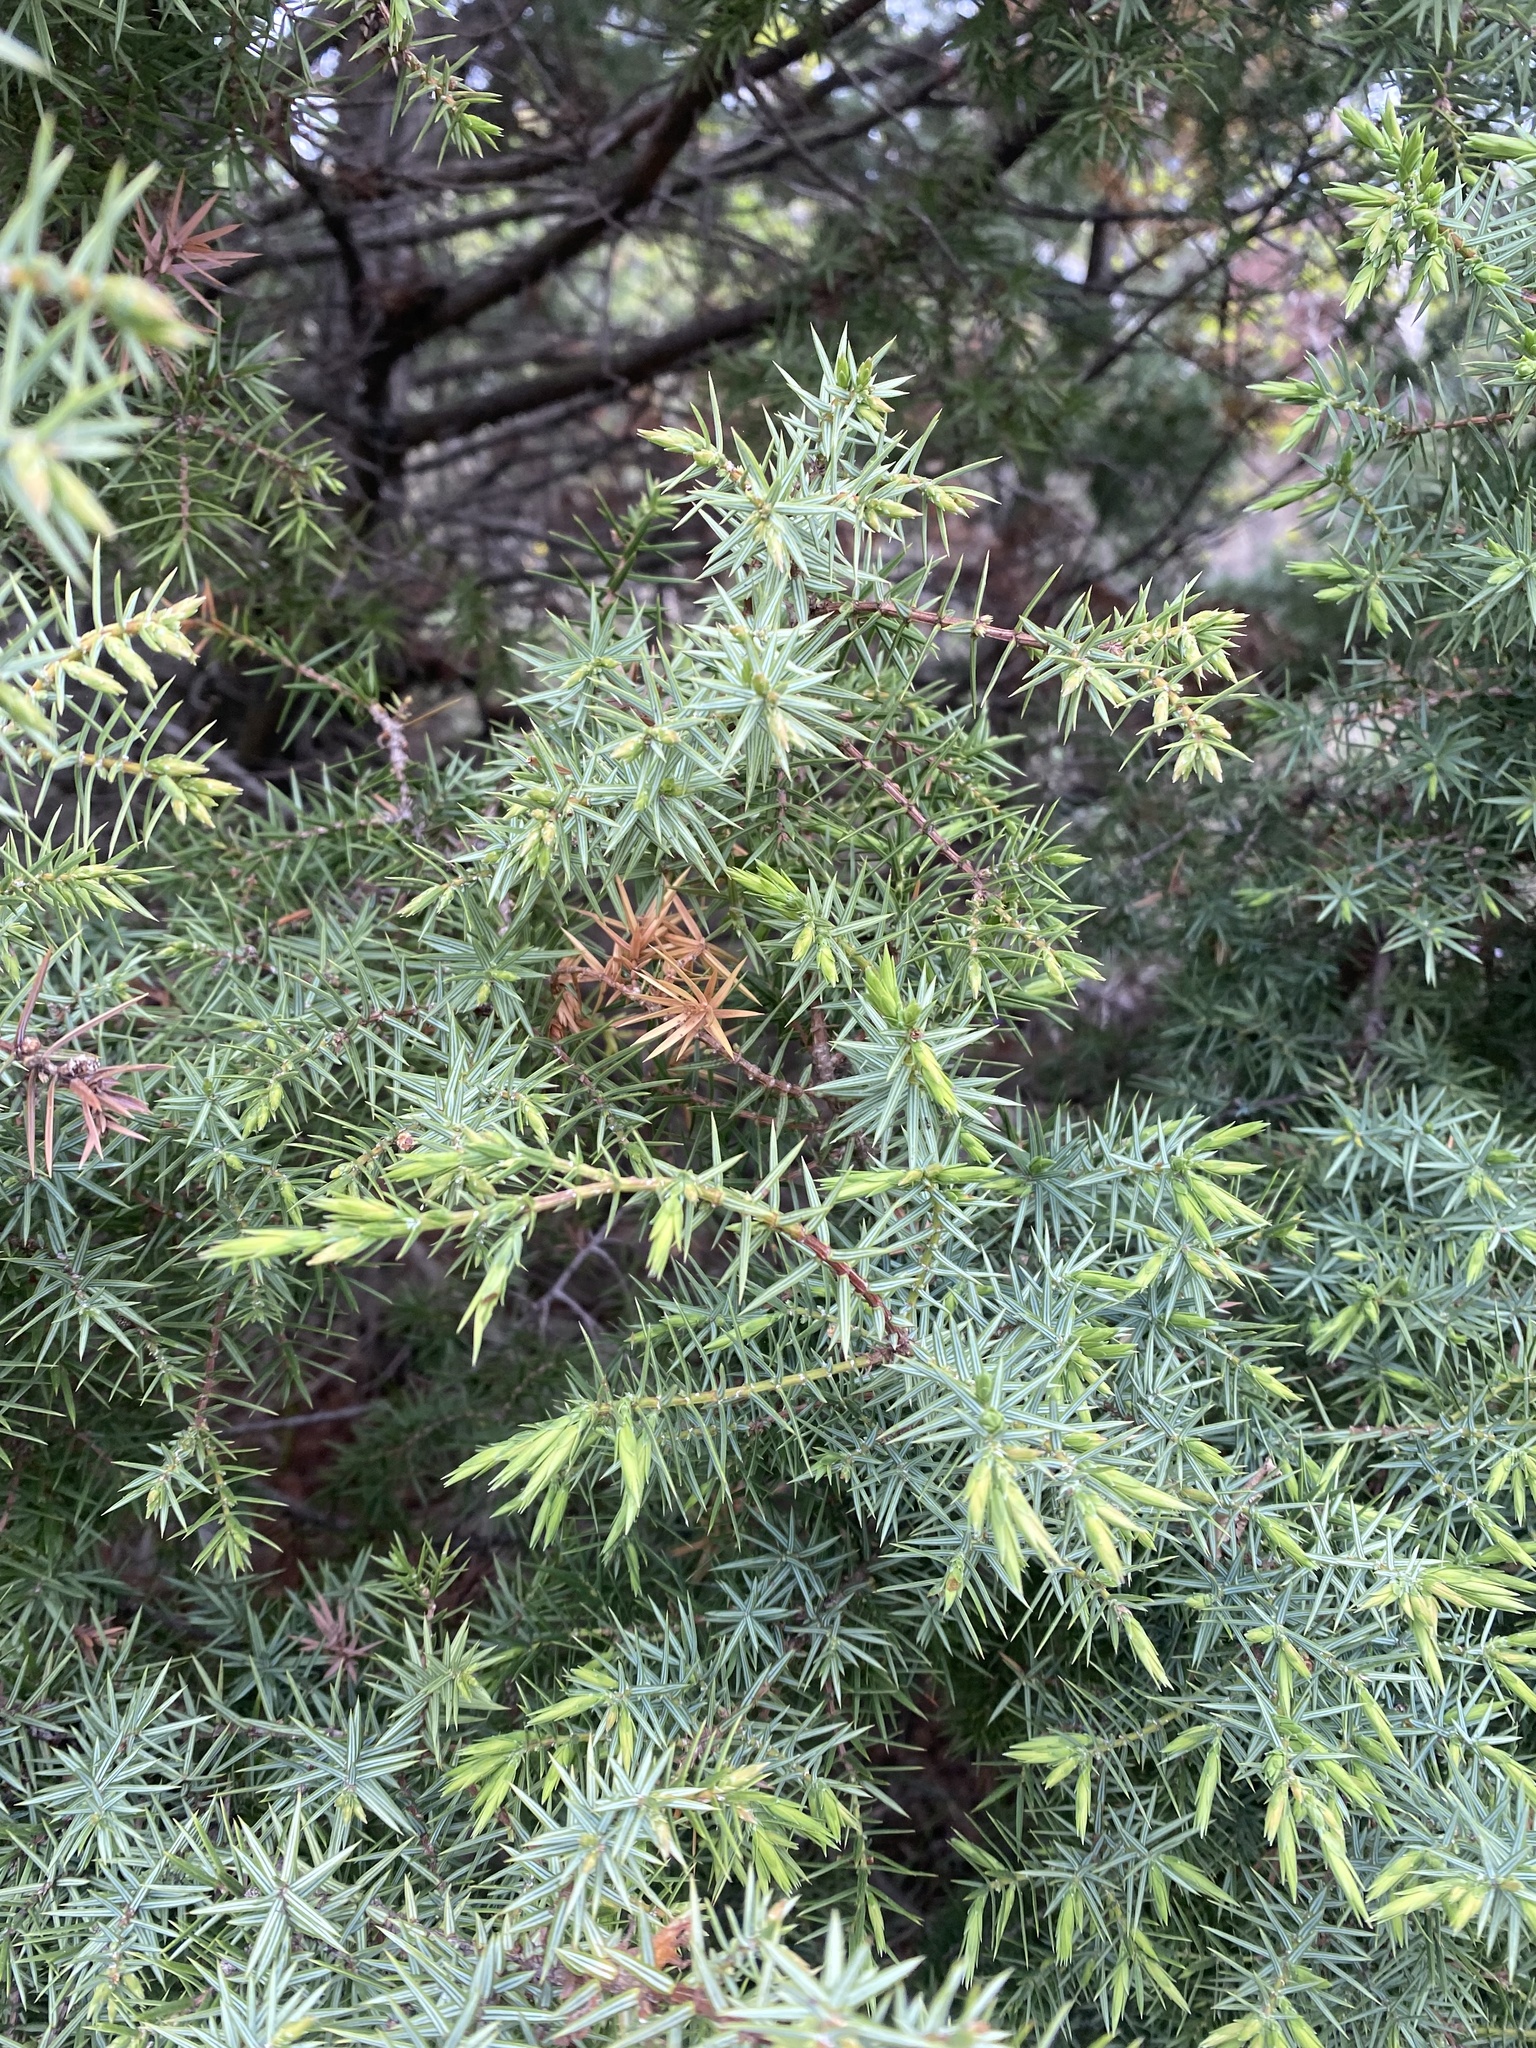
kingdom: Plantae
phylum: Tracheophyta
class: Pinopsida
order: Pinales
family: Cupressaceae
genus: Juniperus
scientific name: Juniperus oxycedrus
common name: Prickly juniper
